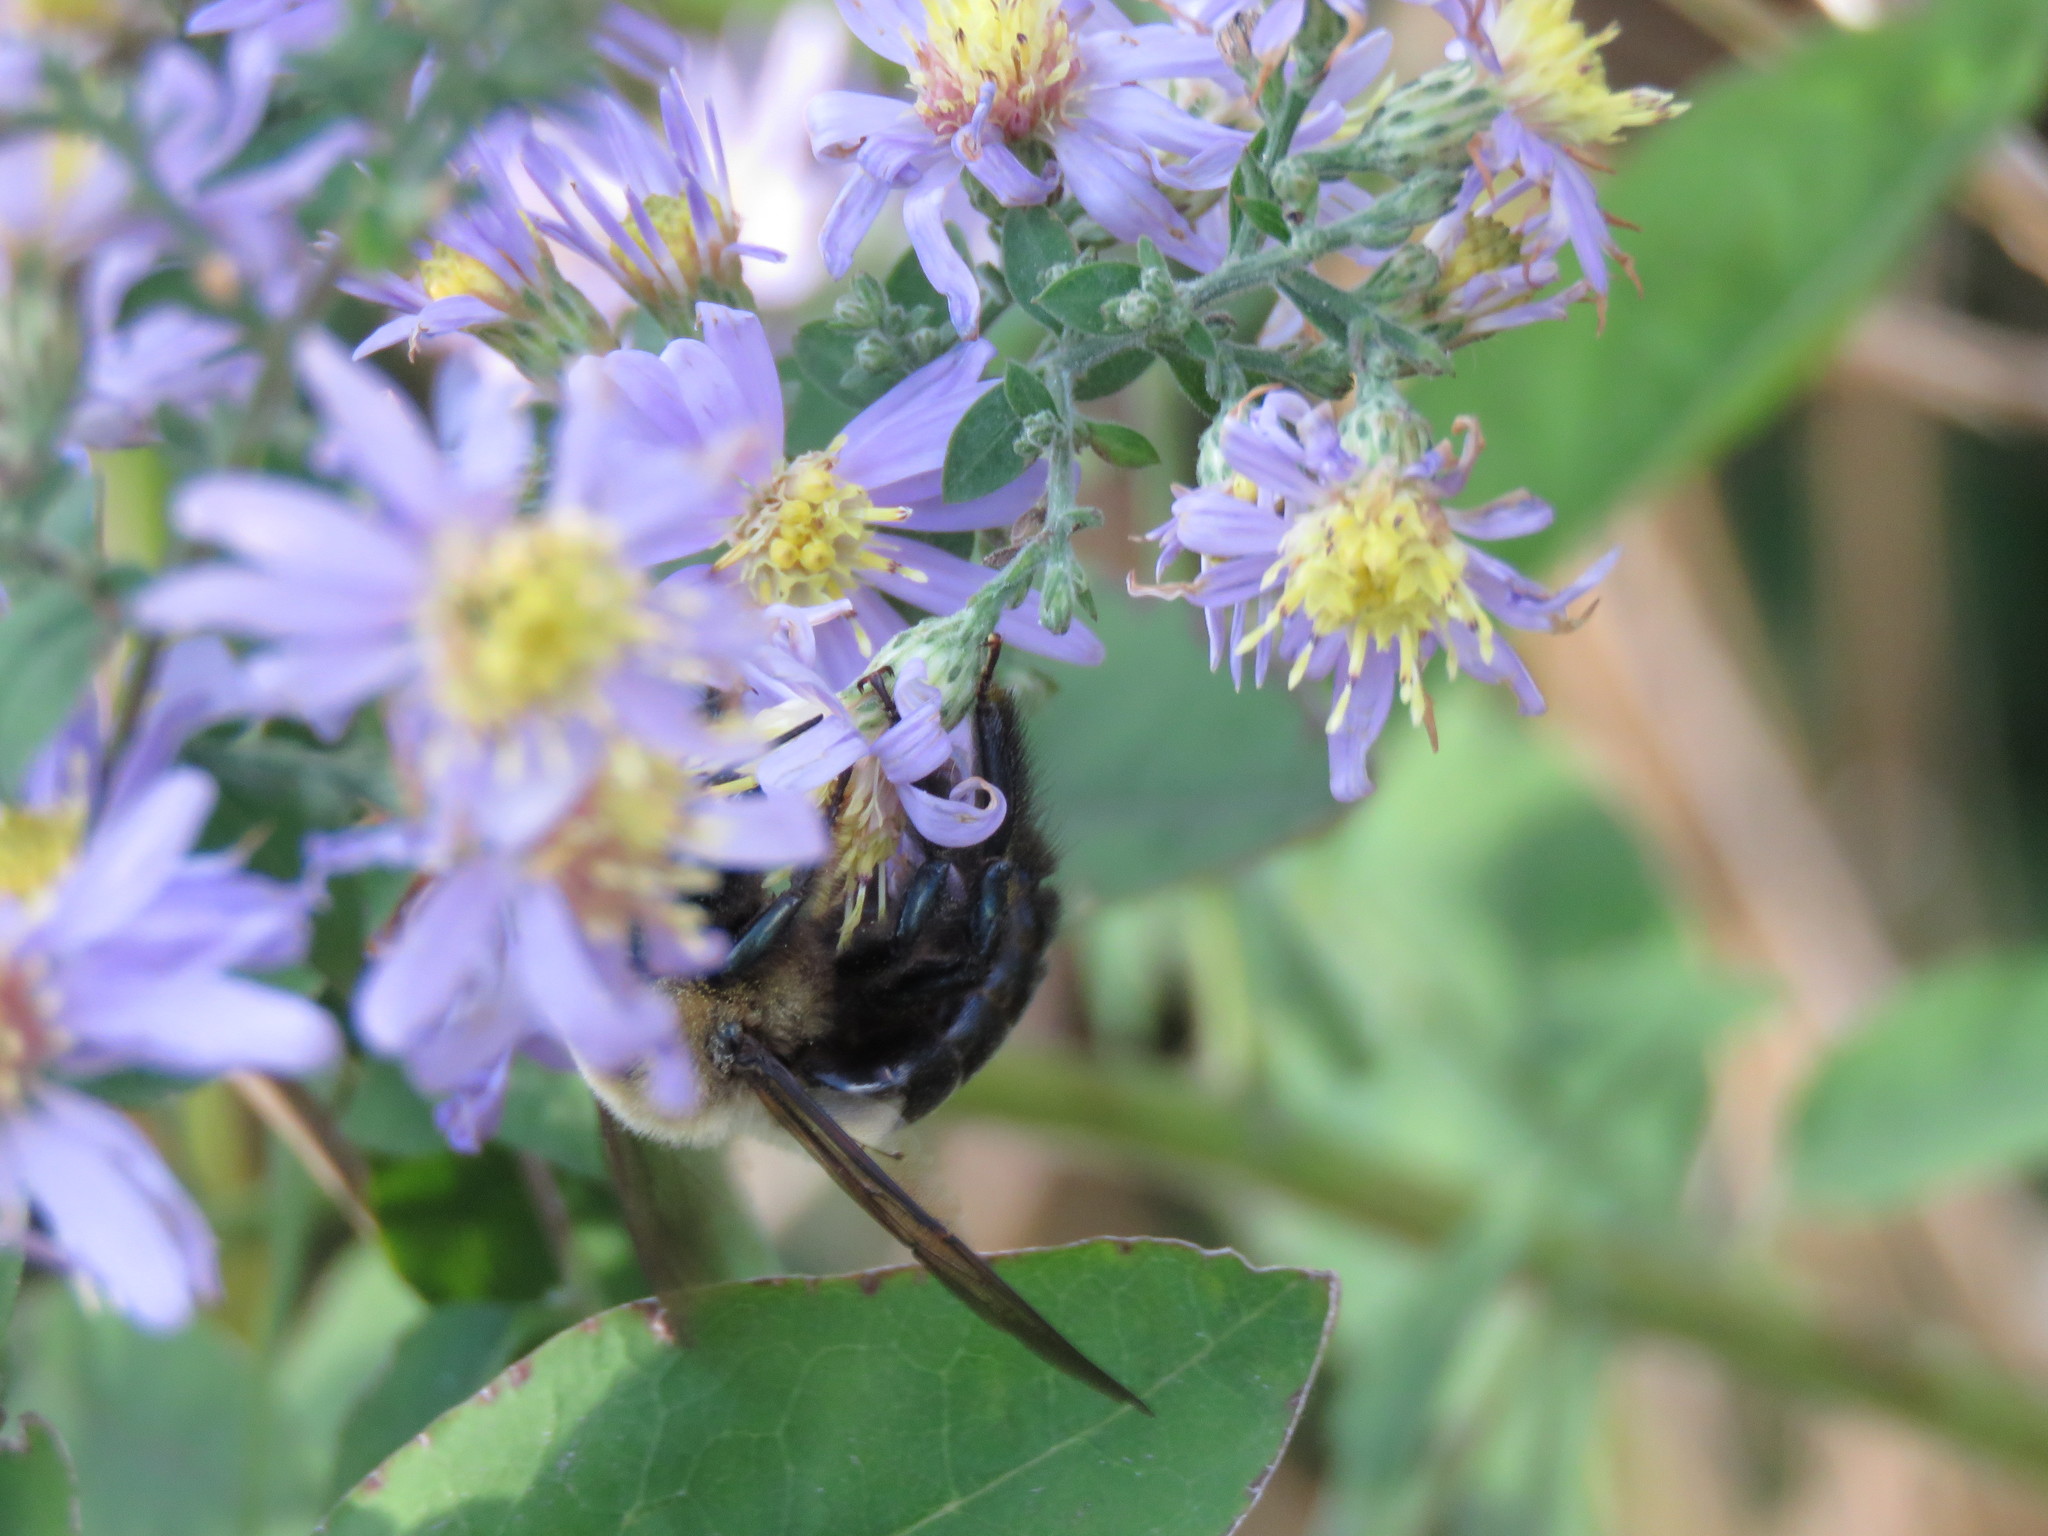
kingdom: Animalia
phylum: Arthropoda
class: Insecta
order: Hymenoptera
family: Apidae
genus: Xylocopa
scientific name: Xylocopa virginica
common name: Carpenter bee
